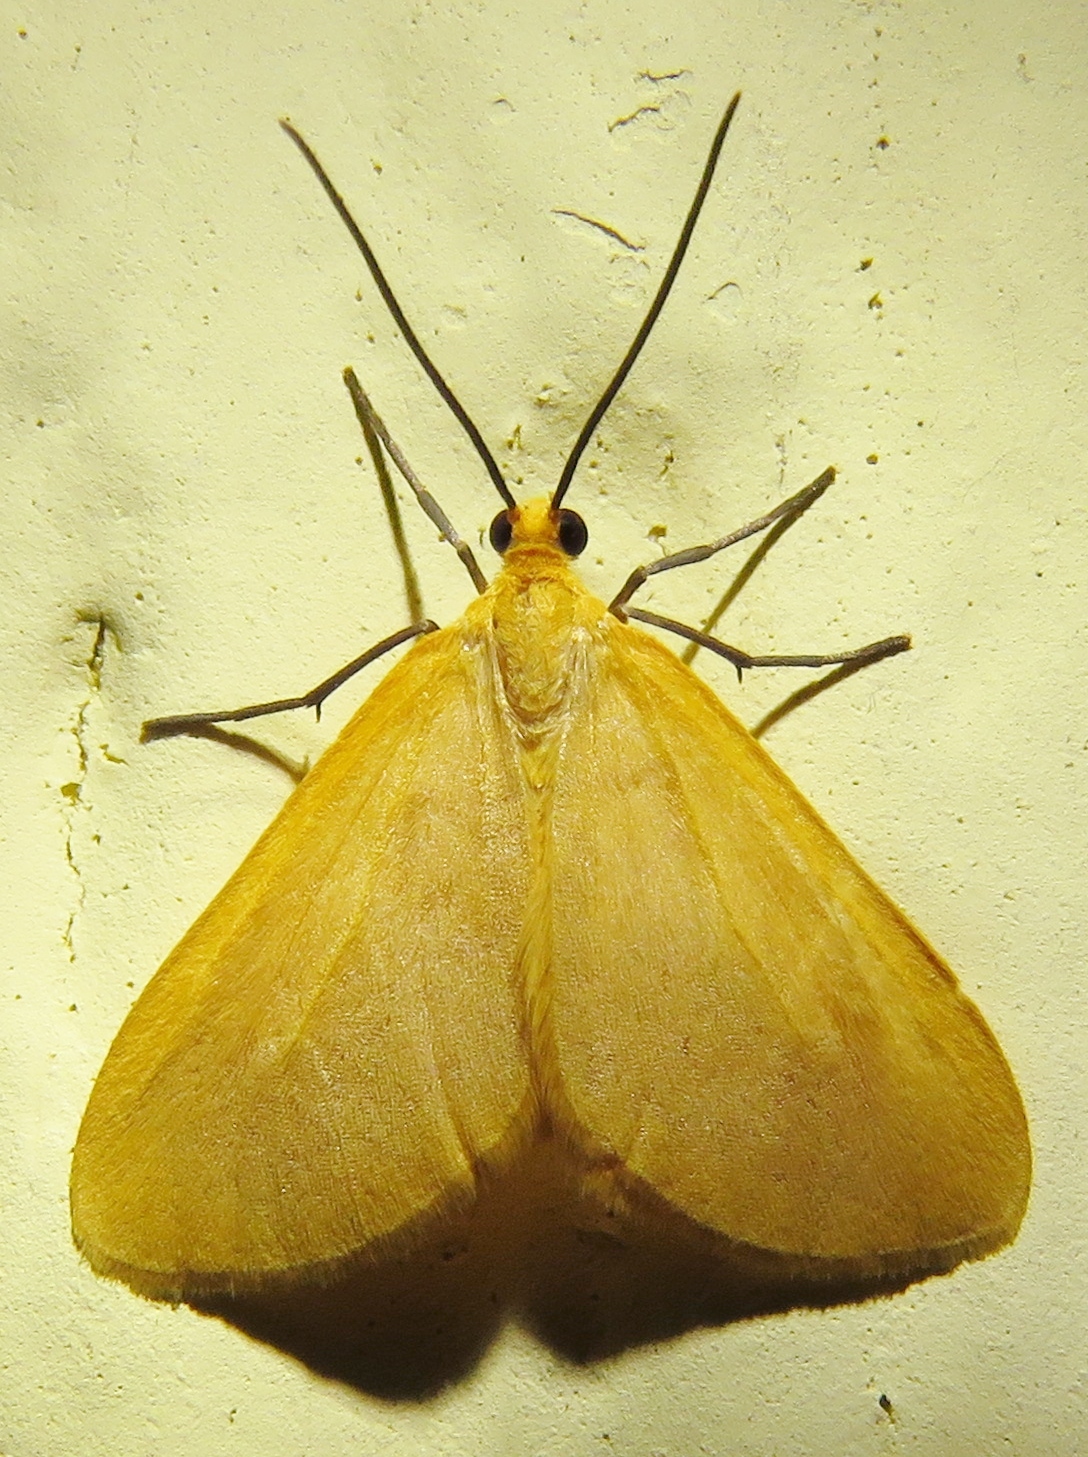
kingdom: Animalia
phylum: Arthropoda
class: Insecta
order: Lepidoptera
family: Geometridae
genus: Eubaphe
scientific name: Eubaphe unicolor
